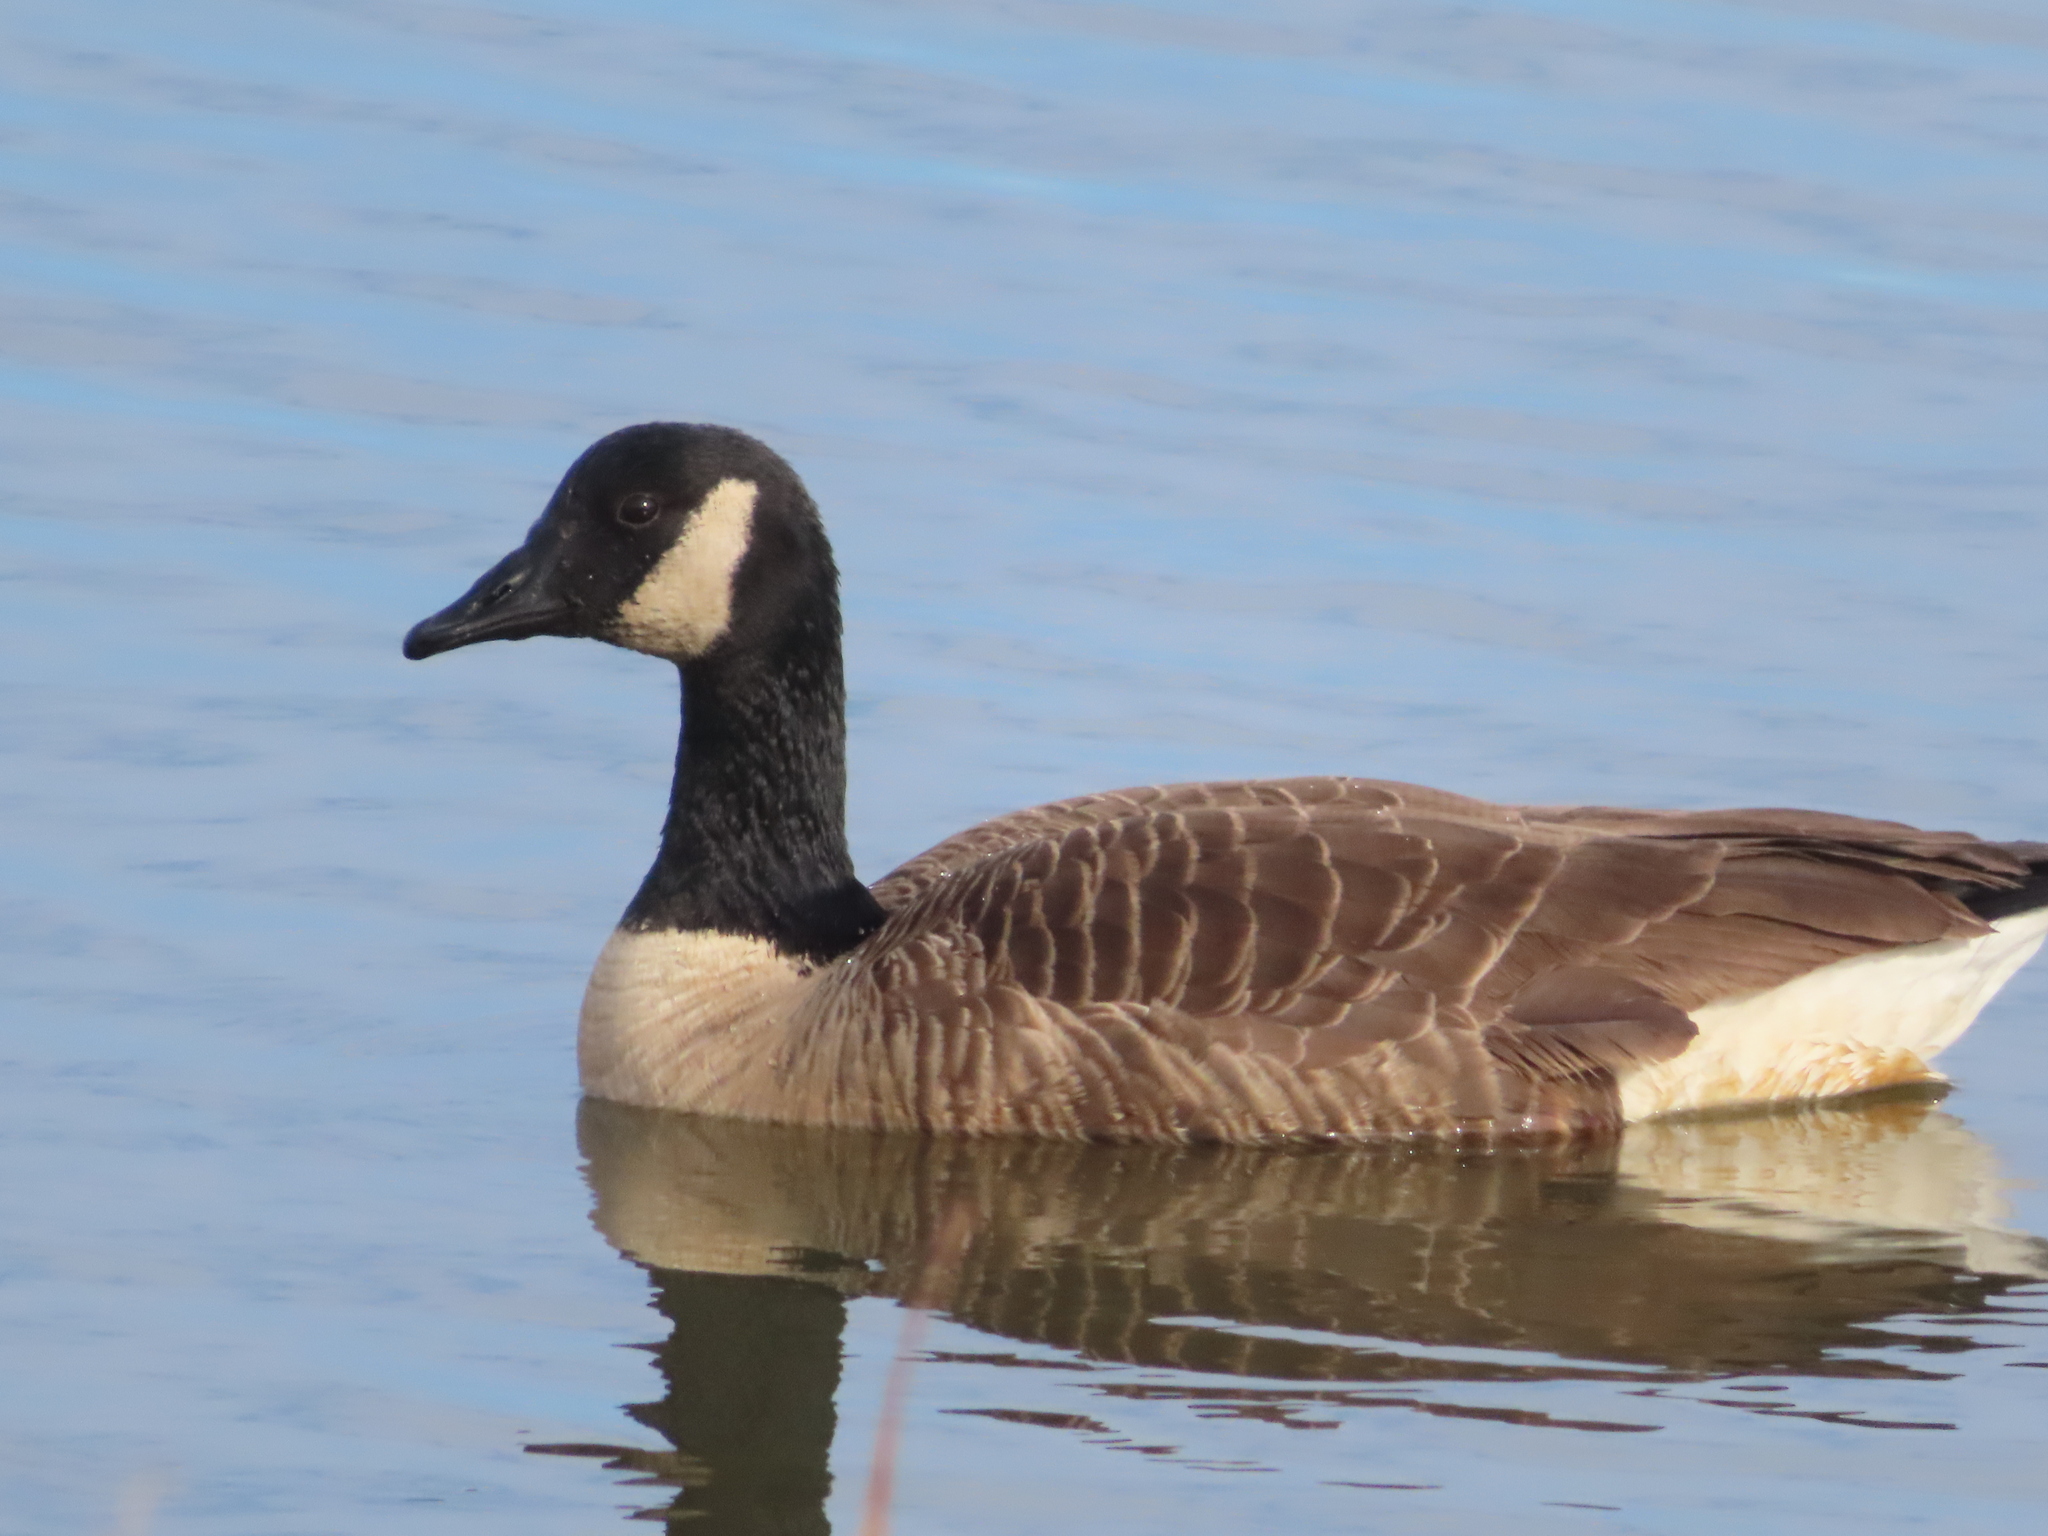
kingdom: Animalia
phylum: Chordata
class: Aves
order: Anseriformes
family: Anatidae
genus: Branta
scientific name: Branta canadensis
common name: Canada goose
